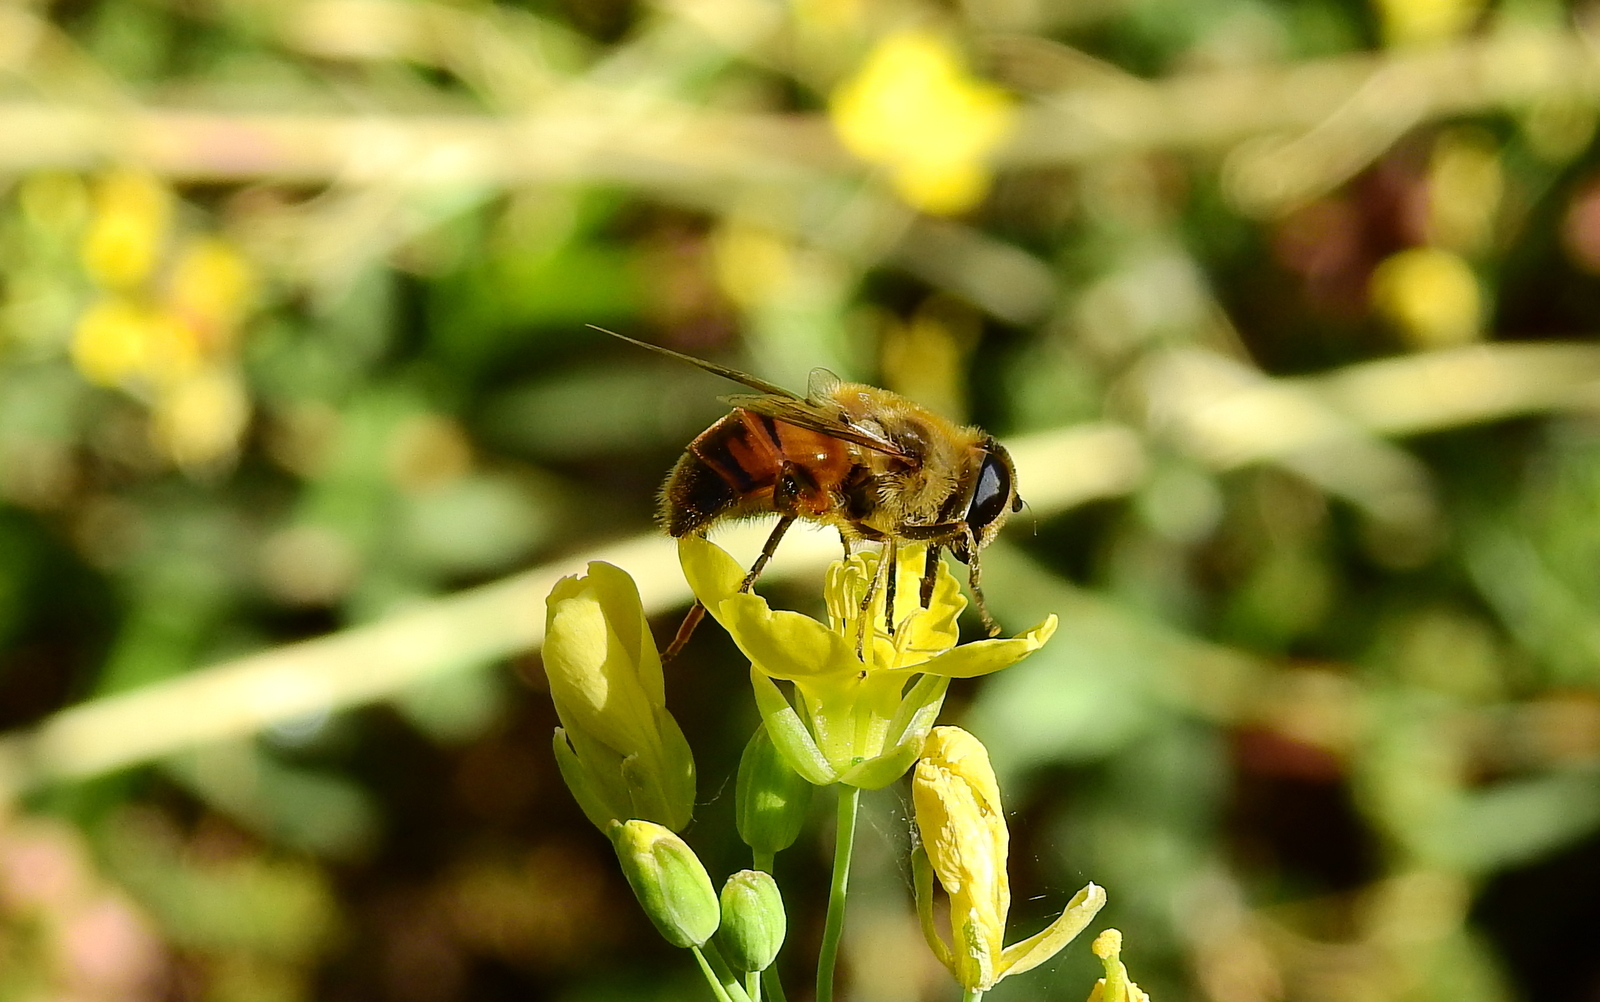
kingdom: Animalia
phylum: Arthropoda
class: Insecta
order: Diptera
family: Syrphidae
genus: Eristalis
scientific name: Eristalis tenax
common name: Drone fly
